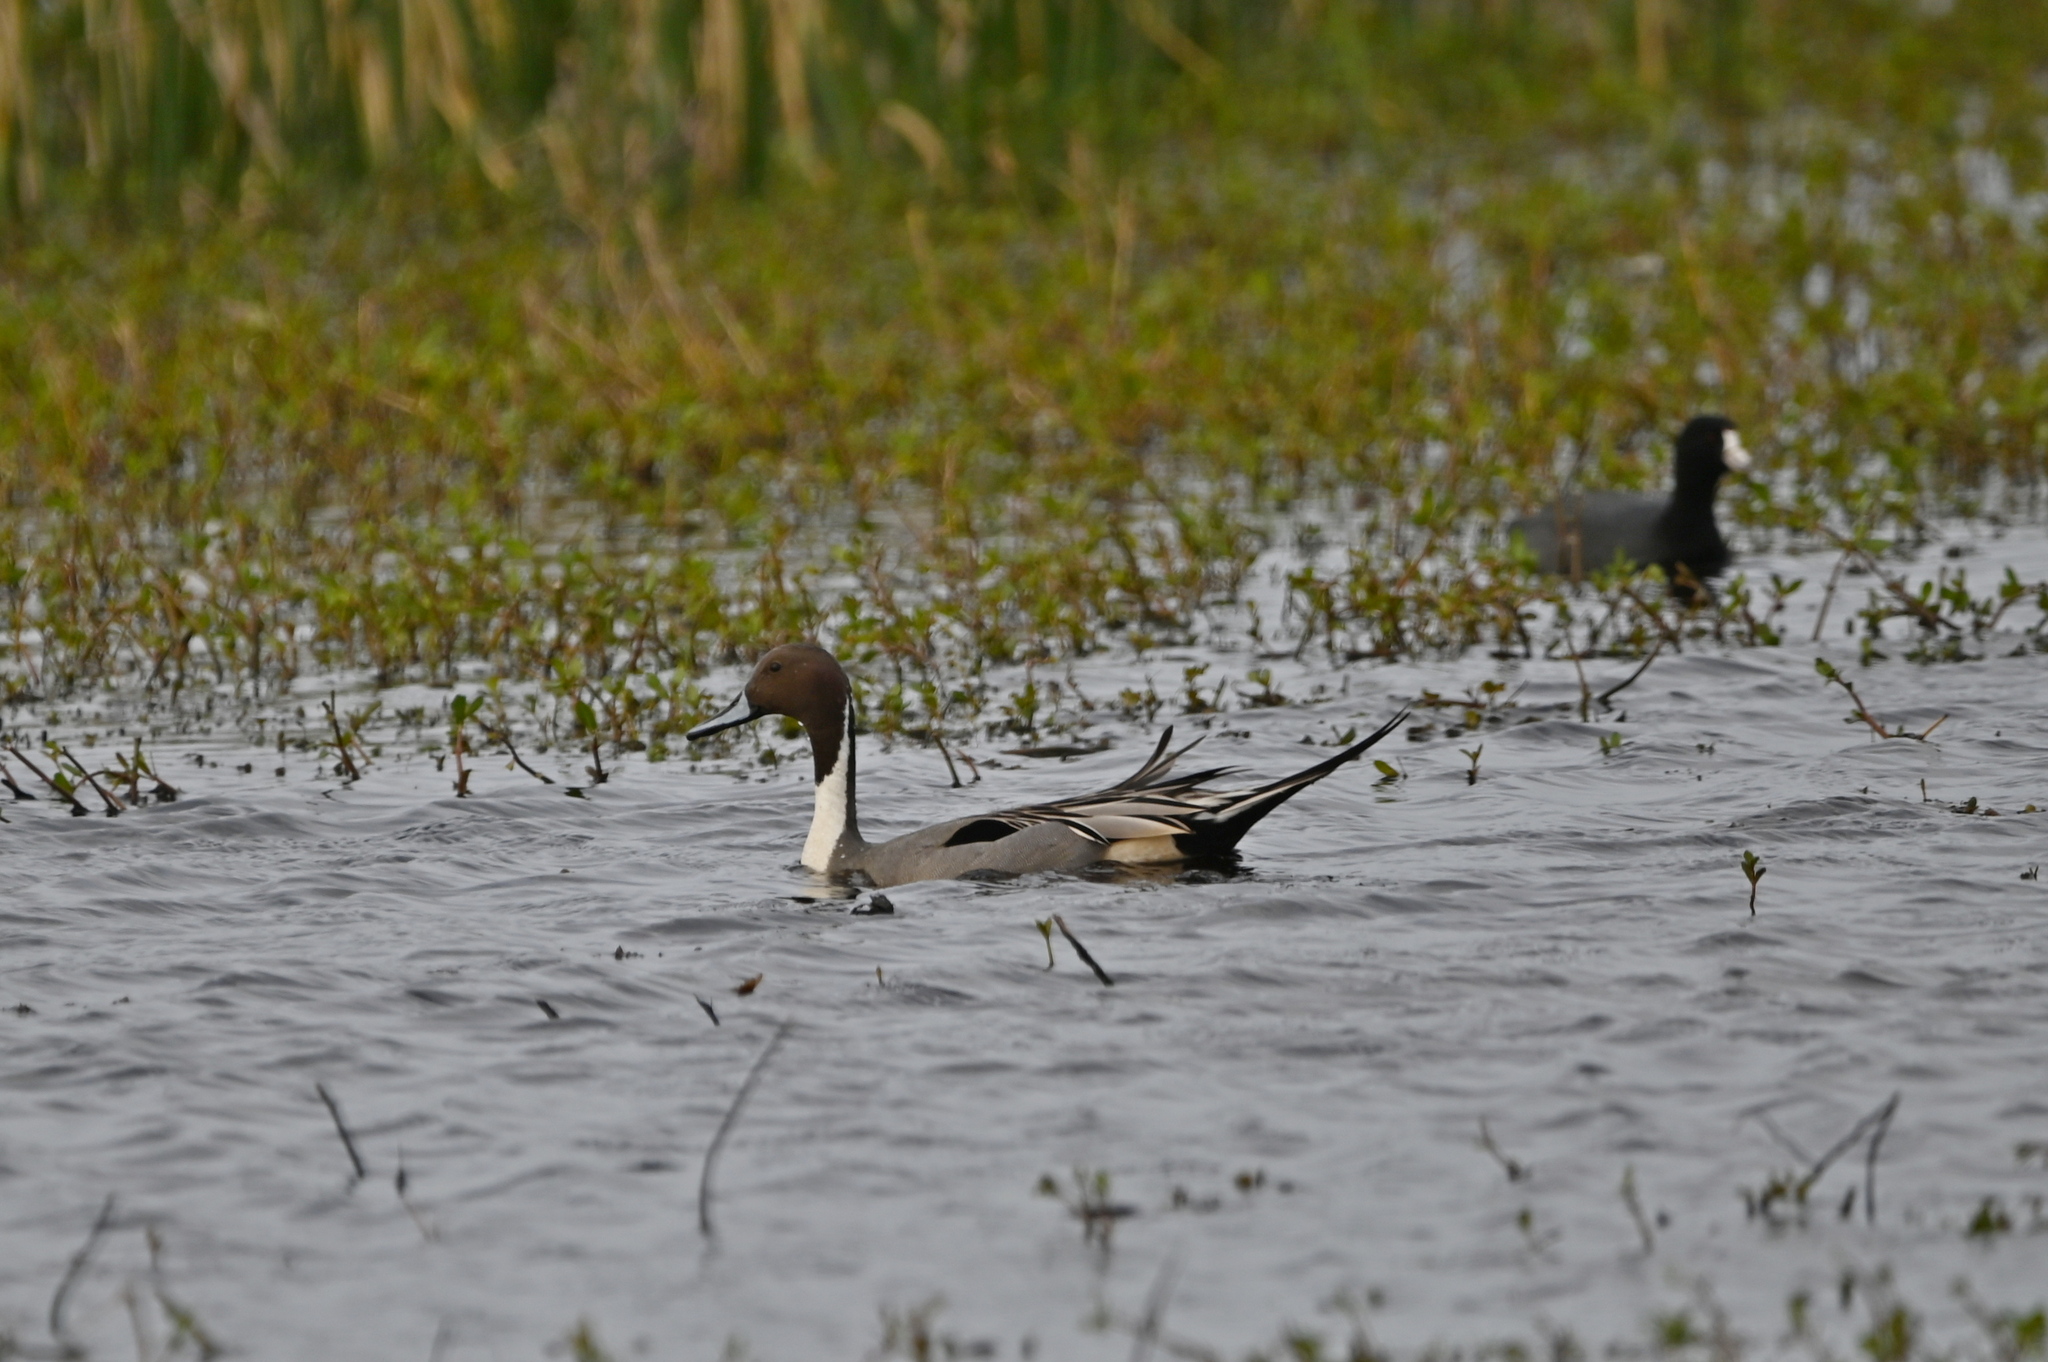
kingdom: Animalia
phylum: Chordata
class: Aves
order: Anseriformes
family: Anatidae
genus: Anas
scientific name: Anas acuta
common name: Northern pintail
